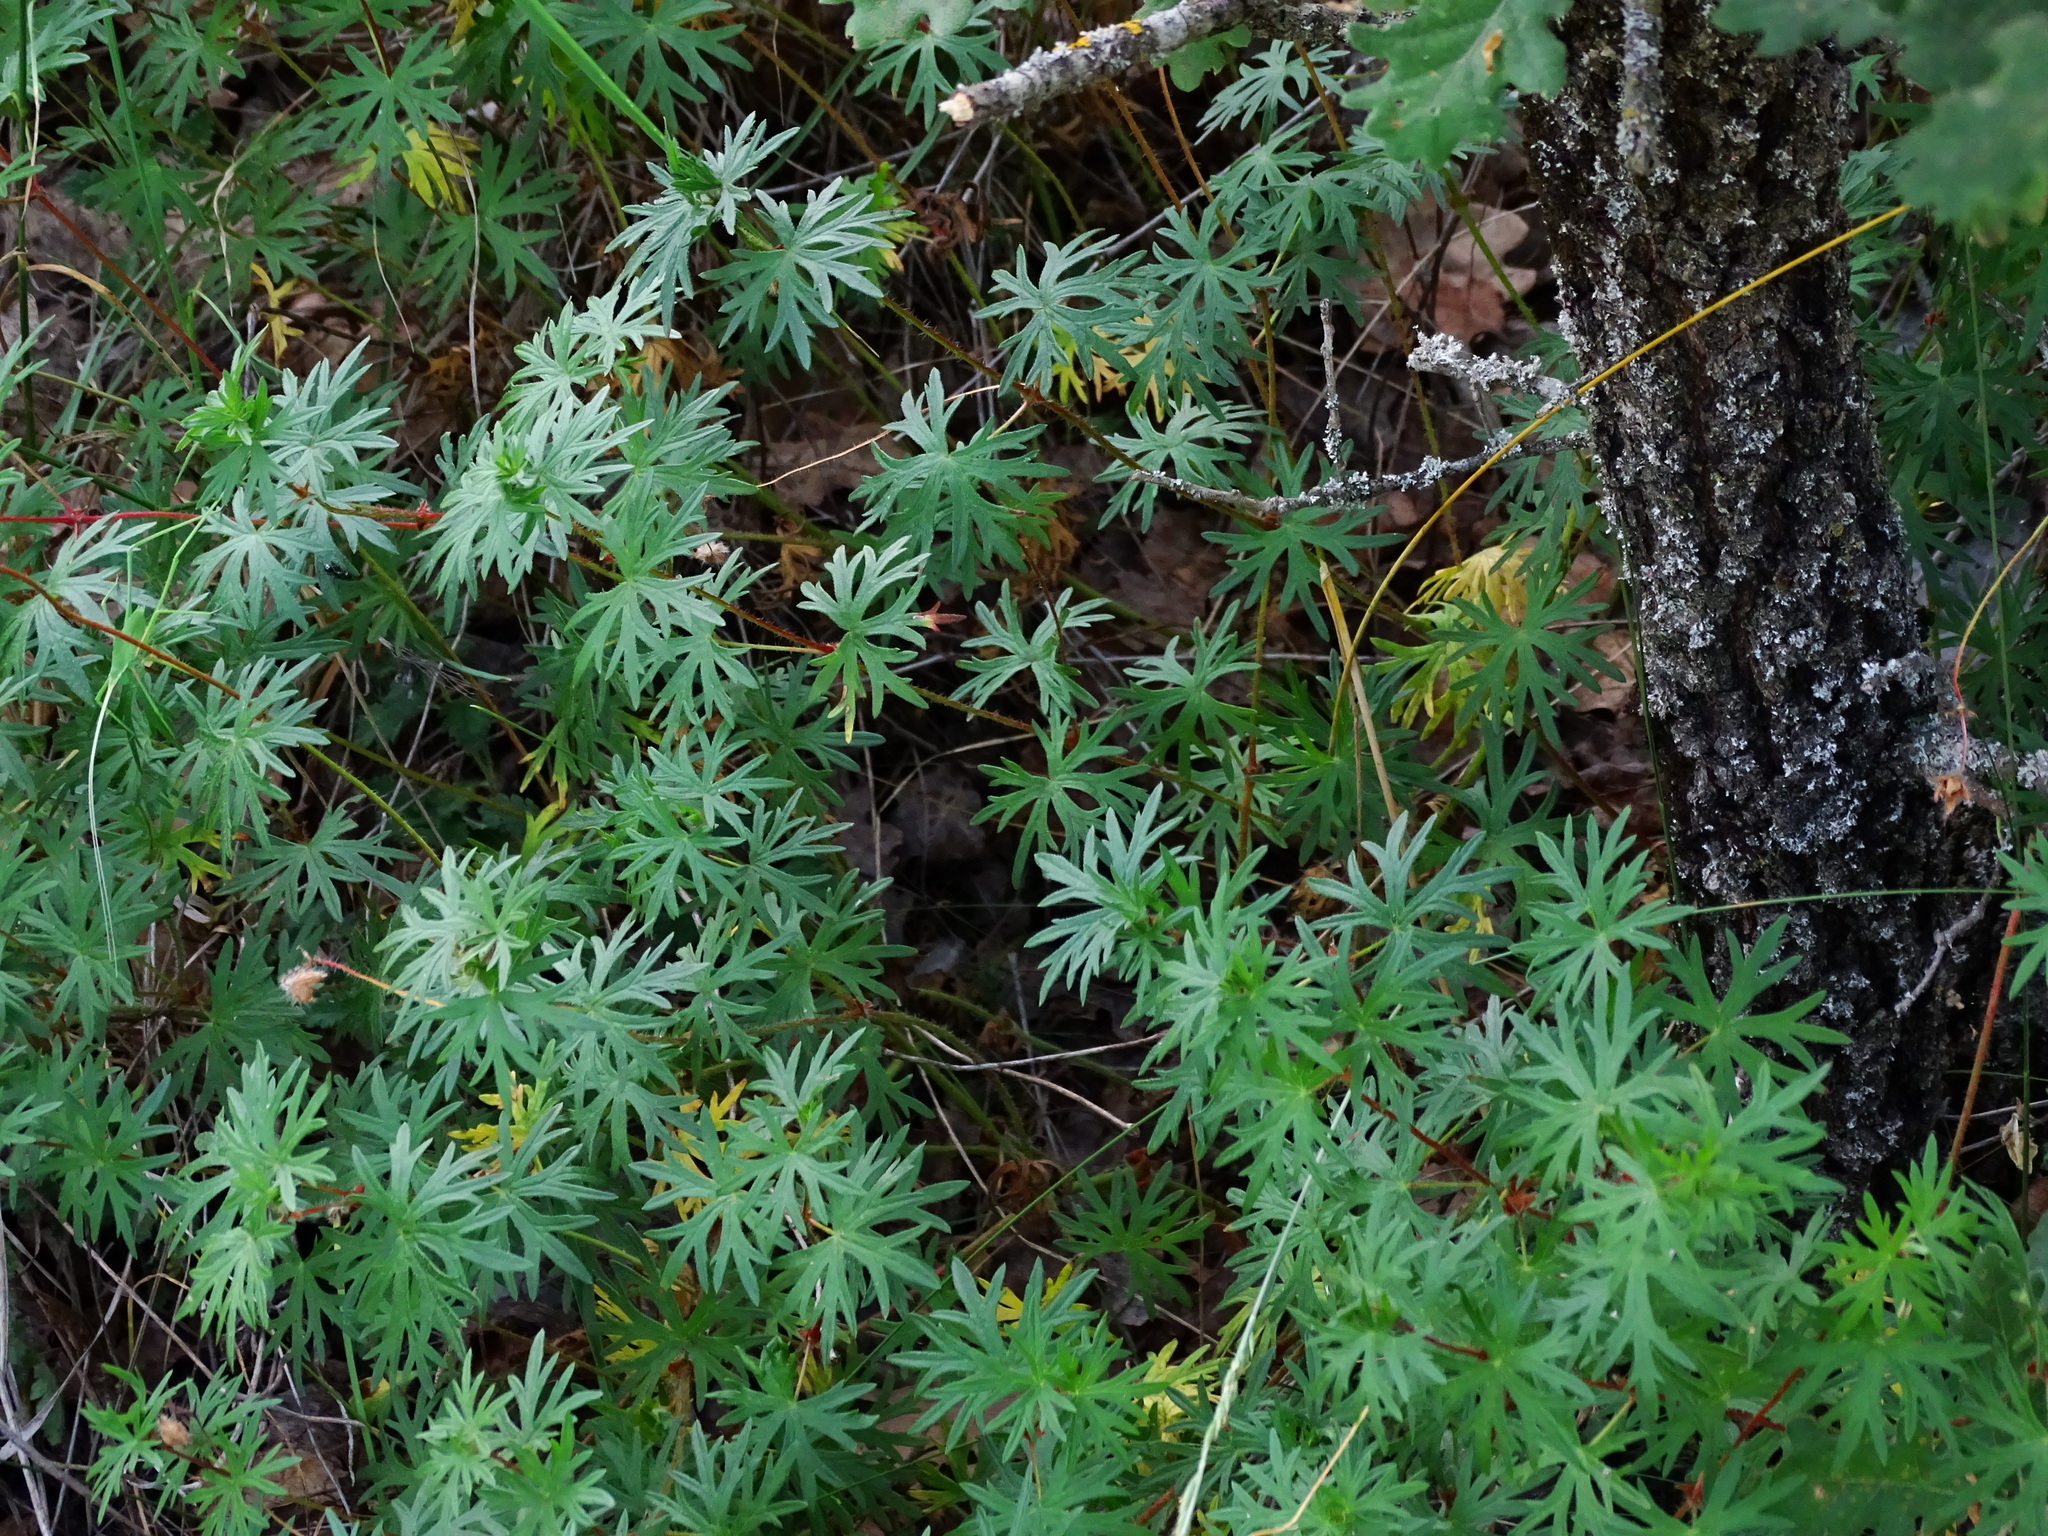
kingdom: Plantae
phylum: Tracheophyta
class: Magnoliopsida
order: Geraniales
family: Geraniaceae
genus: Geranium
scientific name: Geranium sanguineum
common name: Bloody crane's-bill
